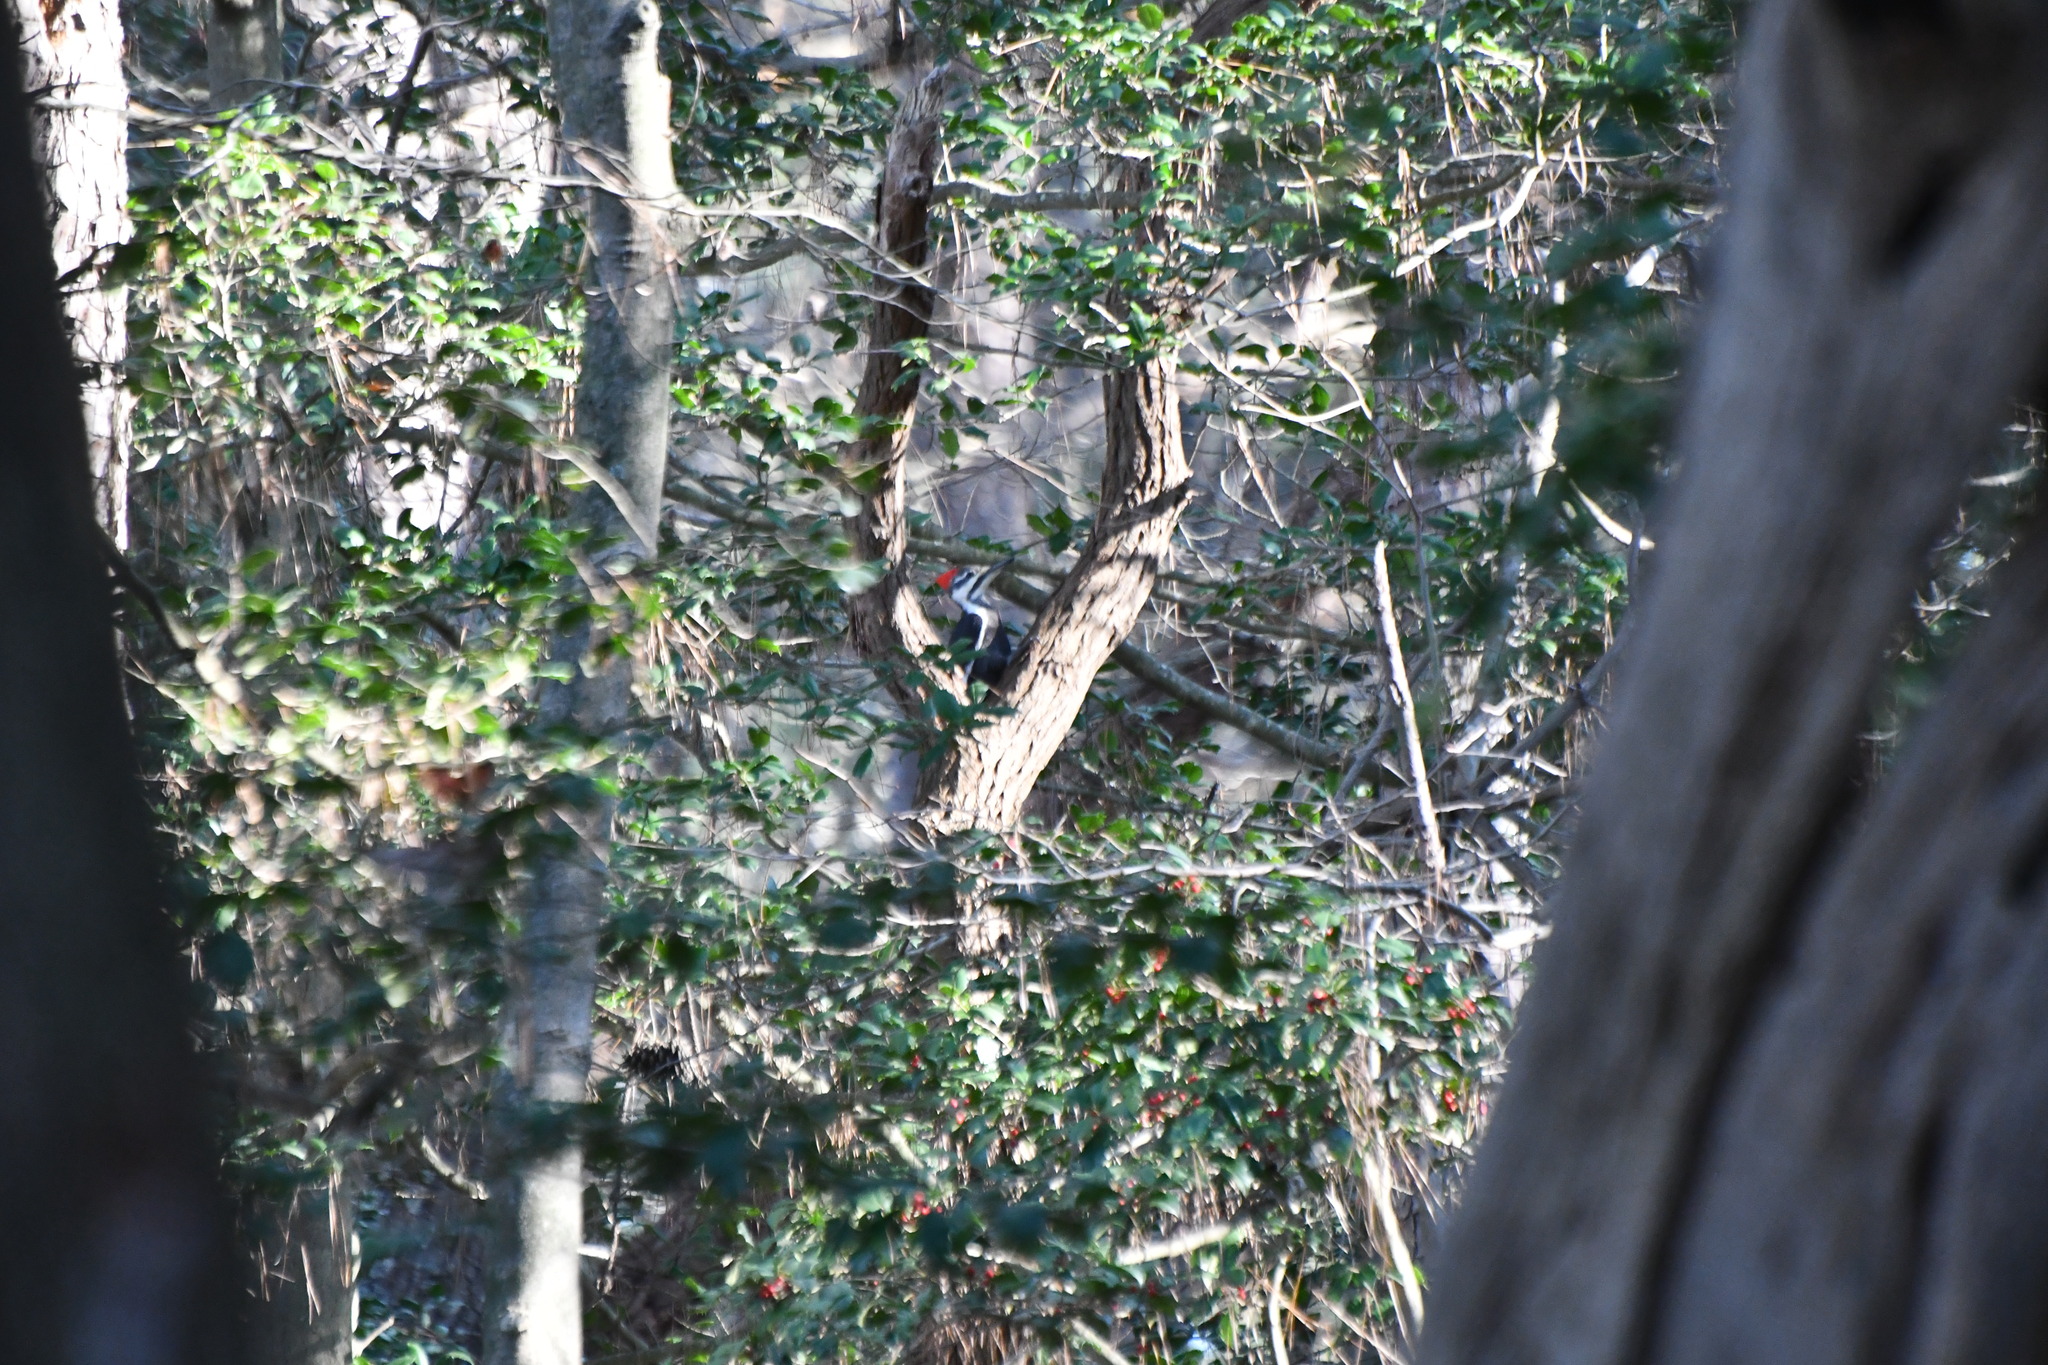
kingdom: Animalia
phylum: Chordata
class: Aves
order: Piciformes
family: Picidae
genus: Dryocopus
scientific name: Dryocopus pileatus
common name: Pileated woodpecker
